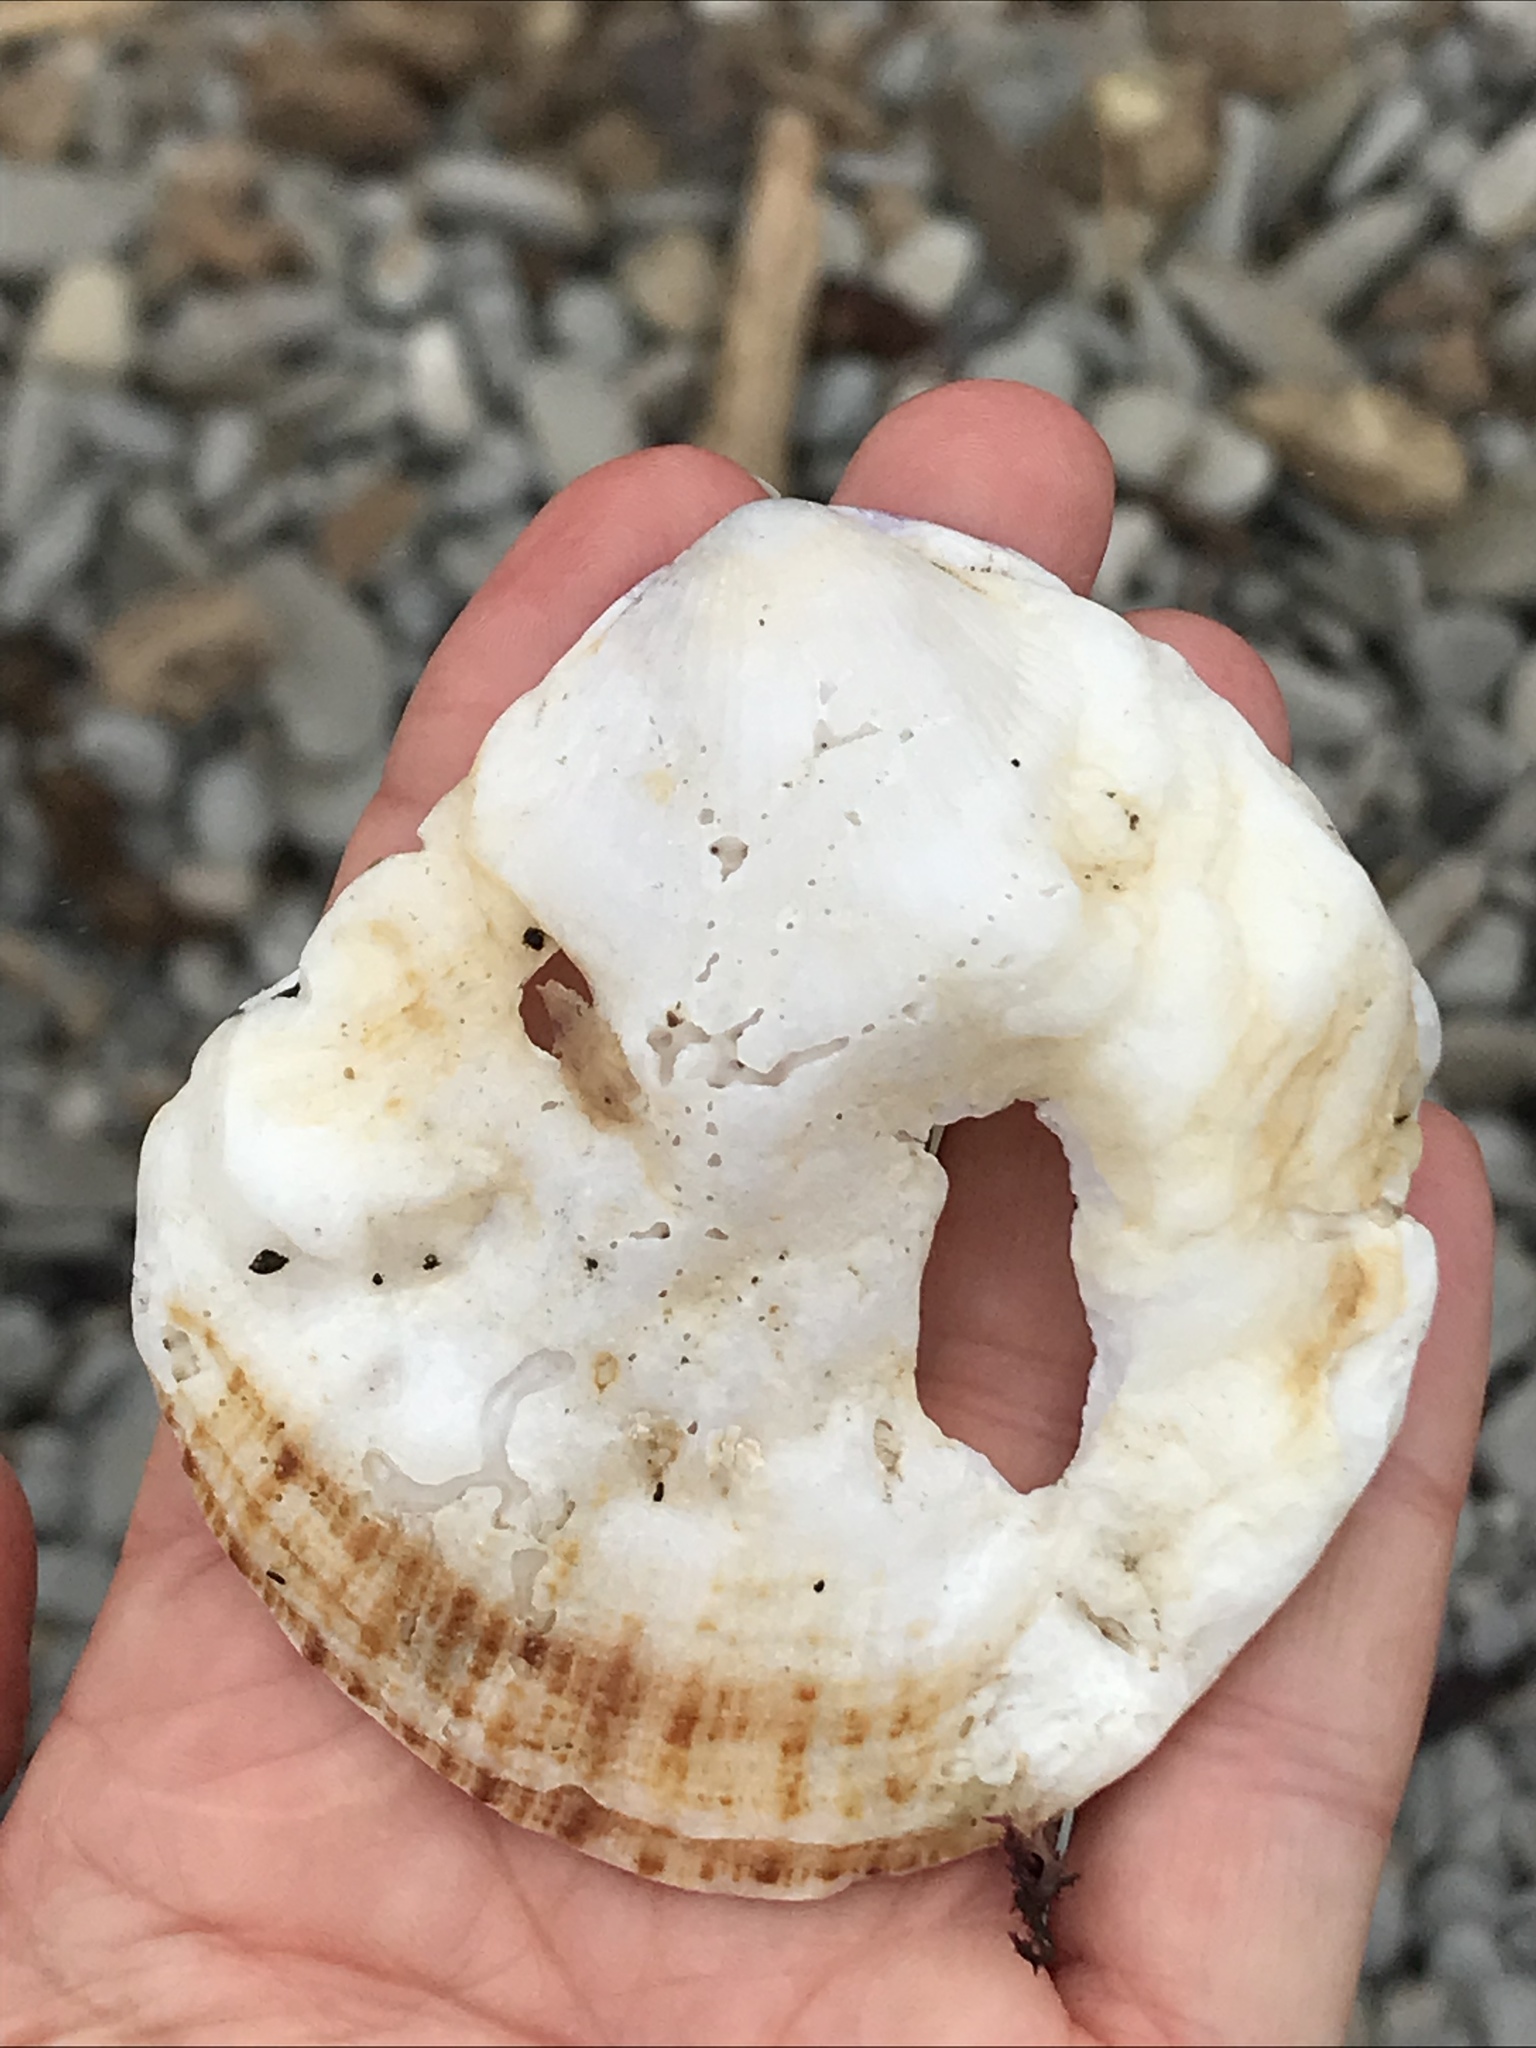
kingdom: Animalia
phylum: Mollusca
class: Bivalvia
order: Pectinida
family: Pectinidae
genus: Crassadoma
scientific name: Crassadoma gigantea
